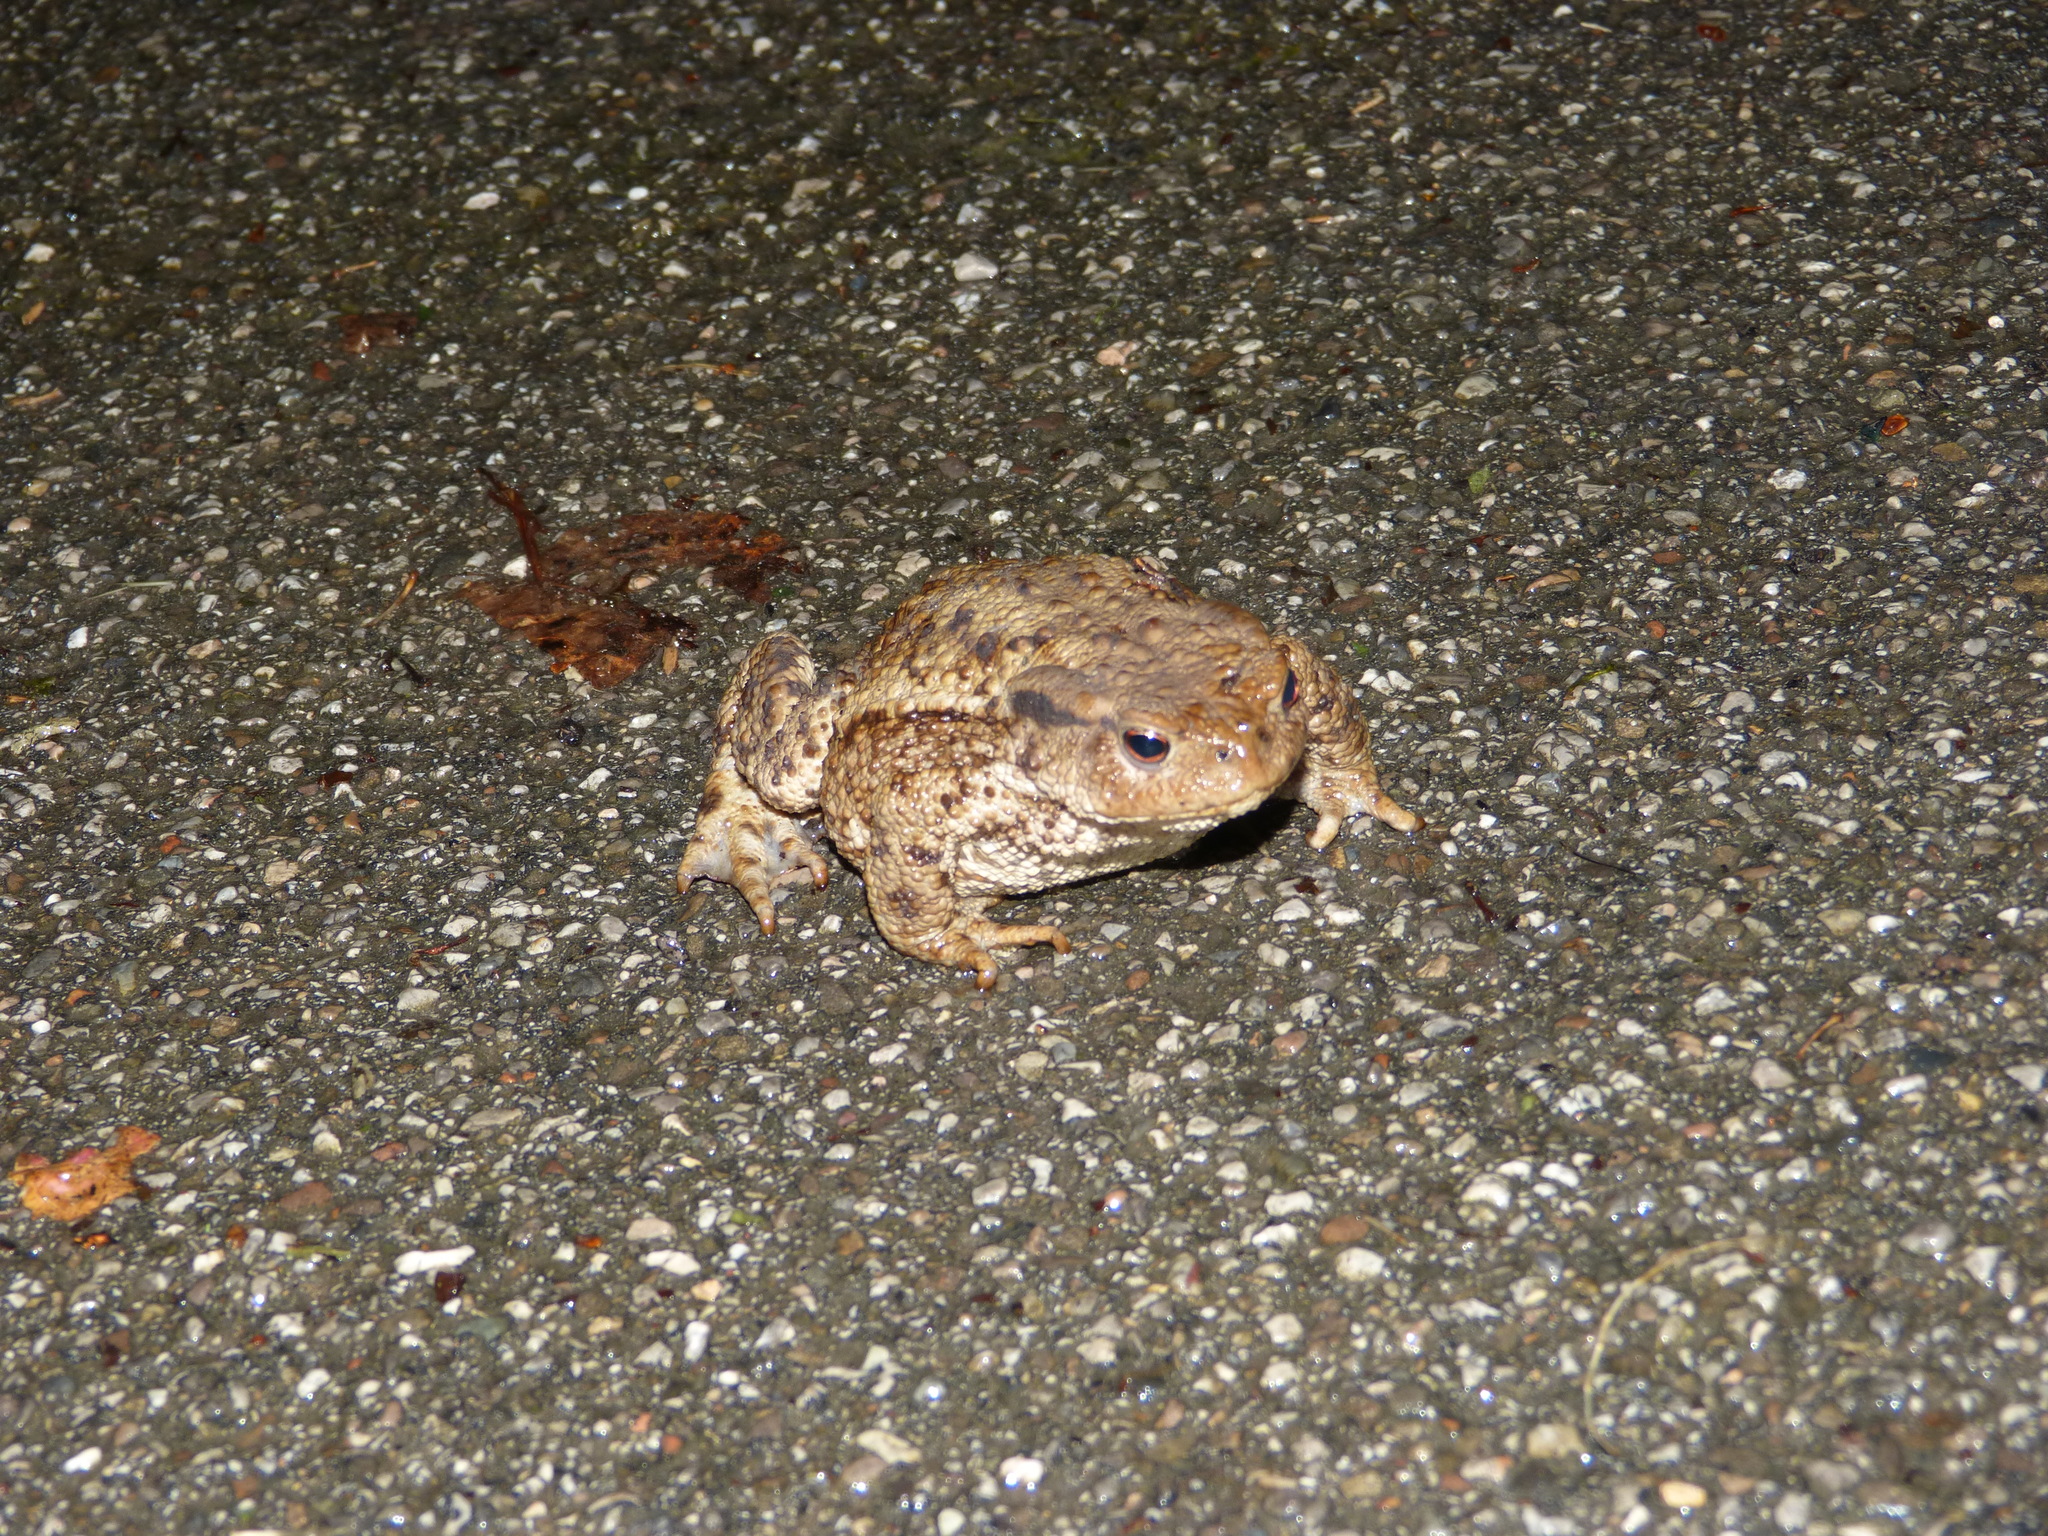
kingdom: Animalia
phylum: Chordata
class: Amphibia
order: Anura
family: Bufonidae
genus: Bufo
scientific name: Bufo bufo
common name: Common toad
